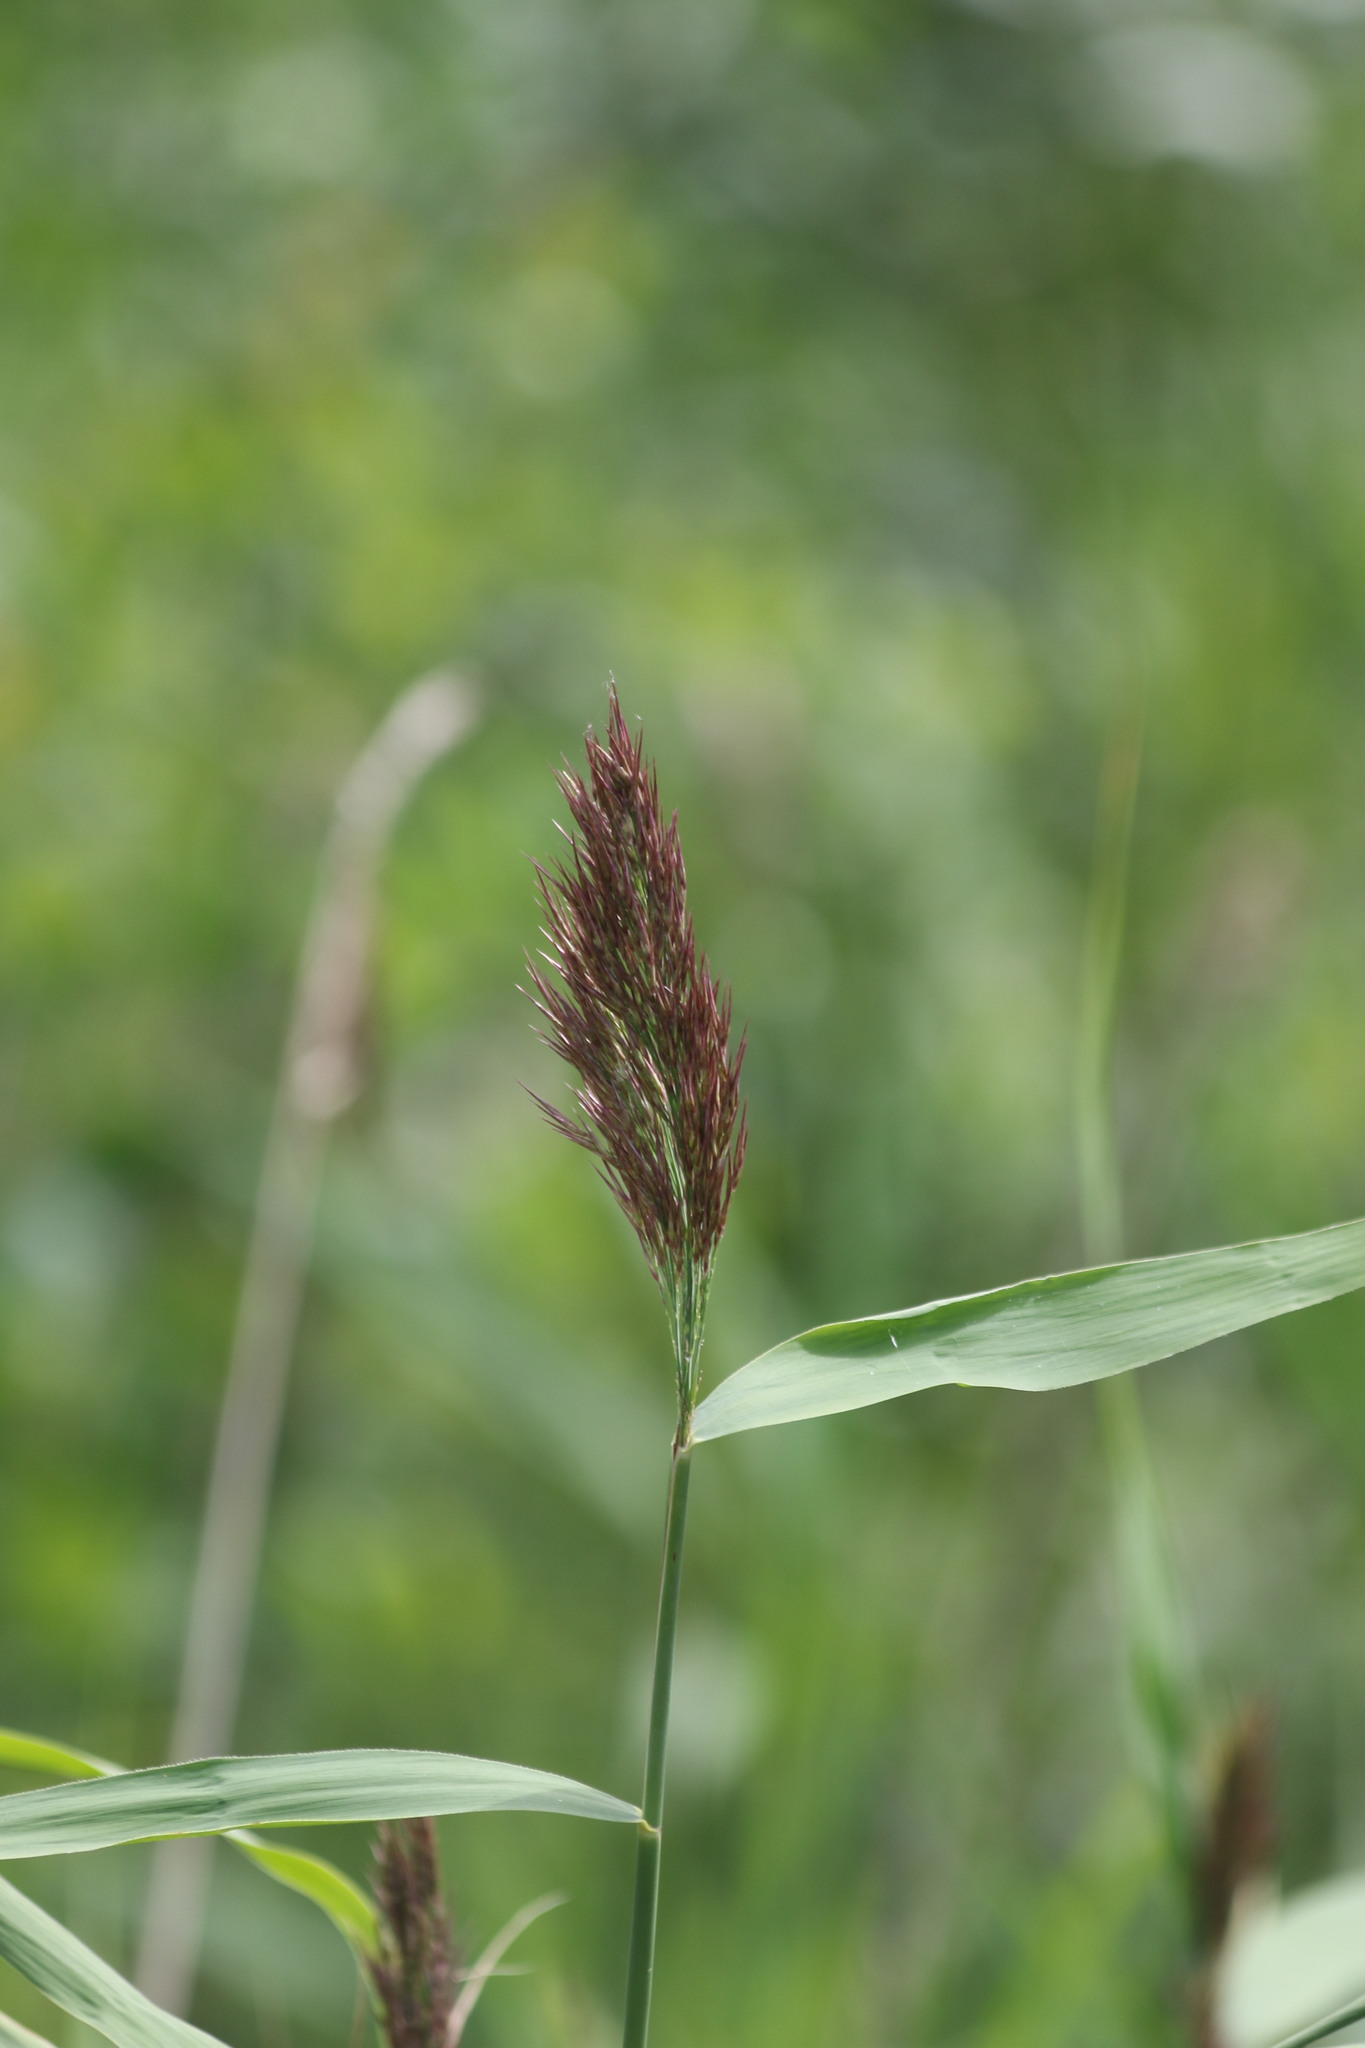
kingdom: Plantae
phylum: Tracheophyta
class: Liliopsida
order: Poales
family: Poaceae
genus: Phragmites
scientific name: Phragmites australis
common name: Common reed
